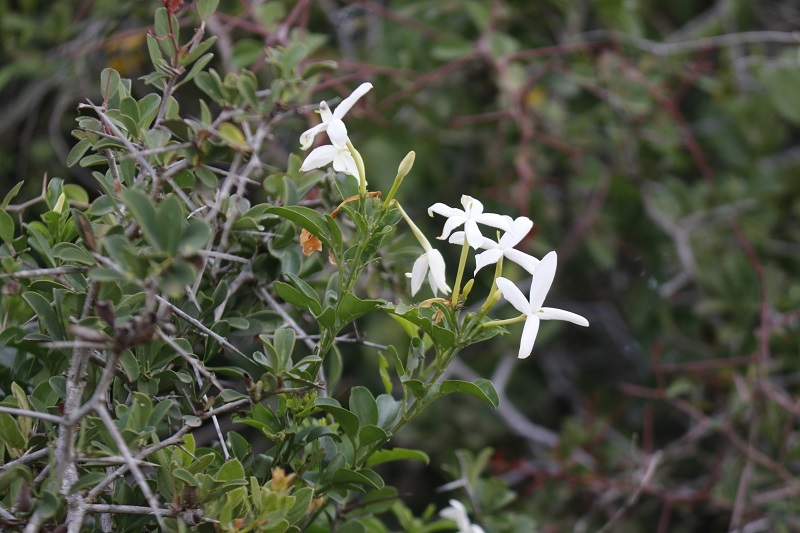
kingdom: Plantae
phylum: Tracheophyta
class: Magnoliopsida
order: Lamiales
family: Oleaceae
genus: Jasminum
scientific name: Jasminum angulare
